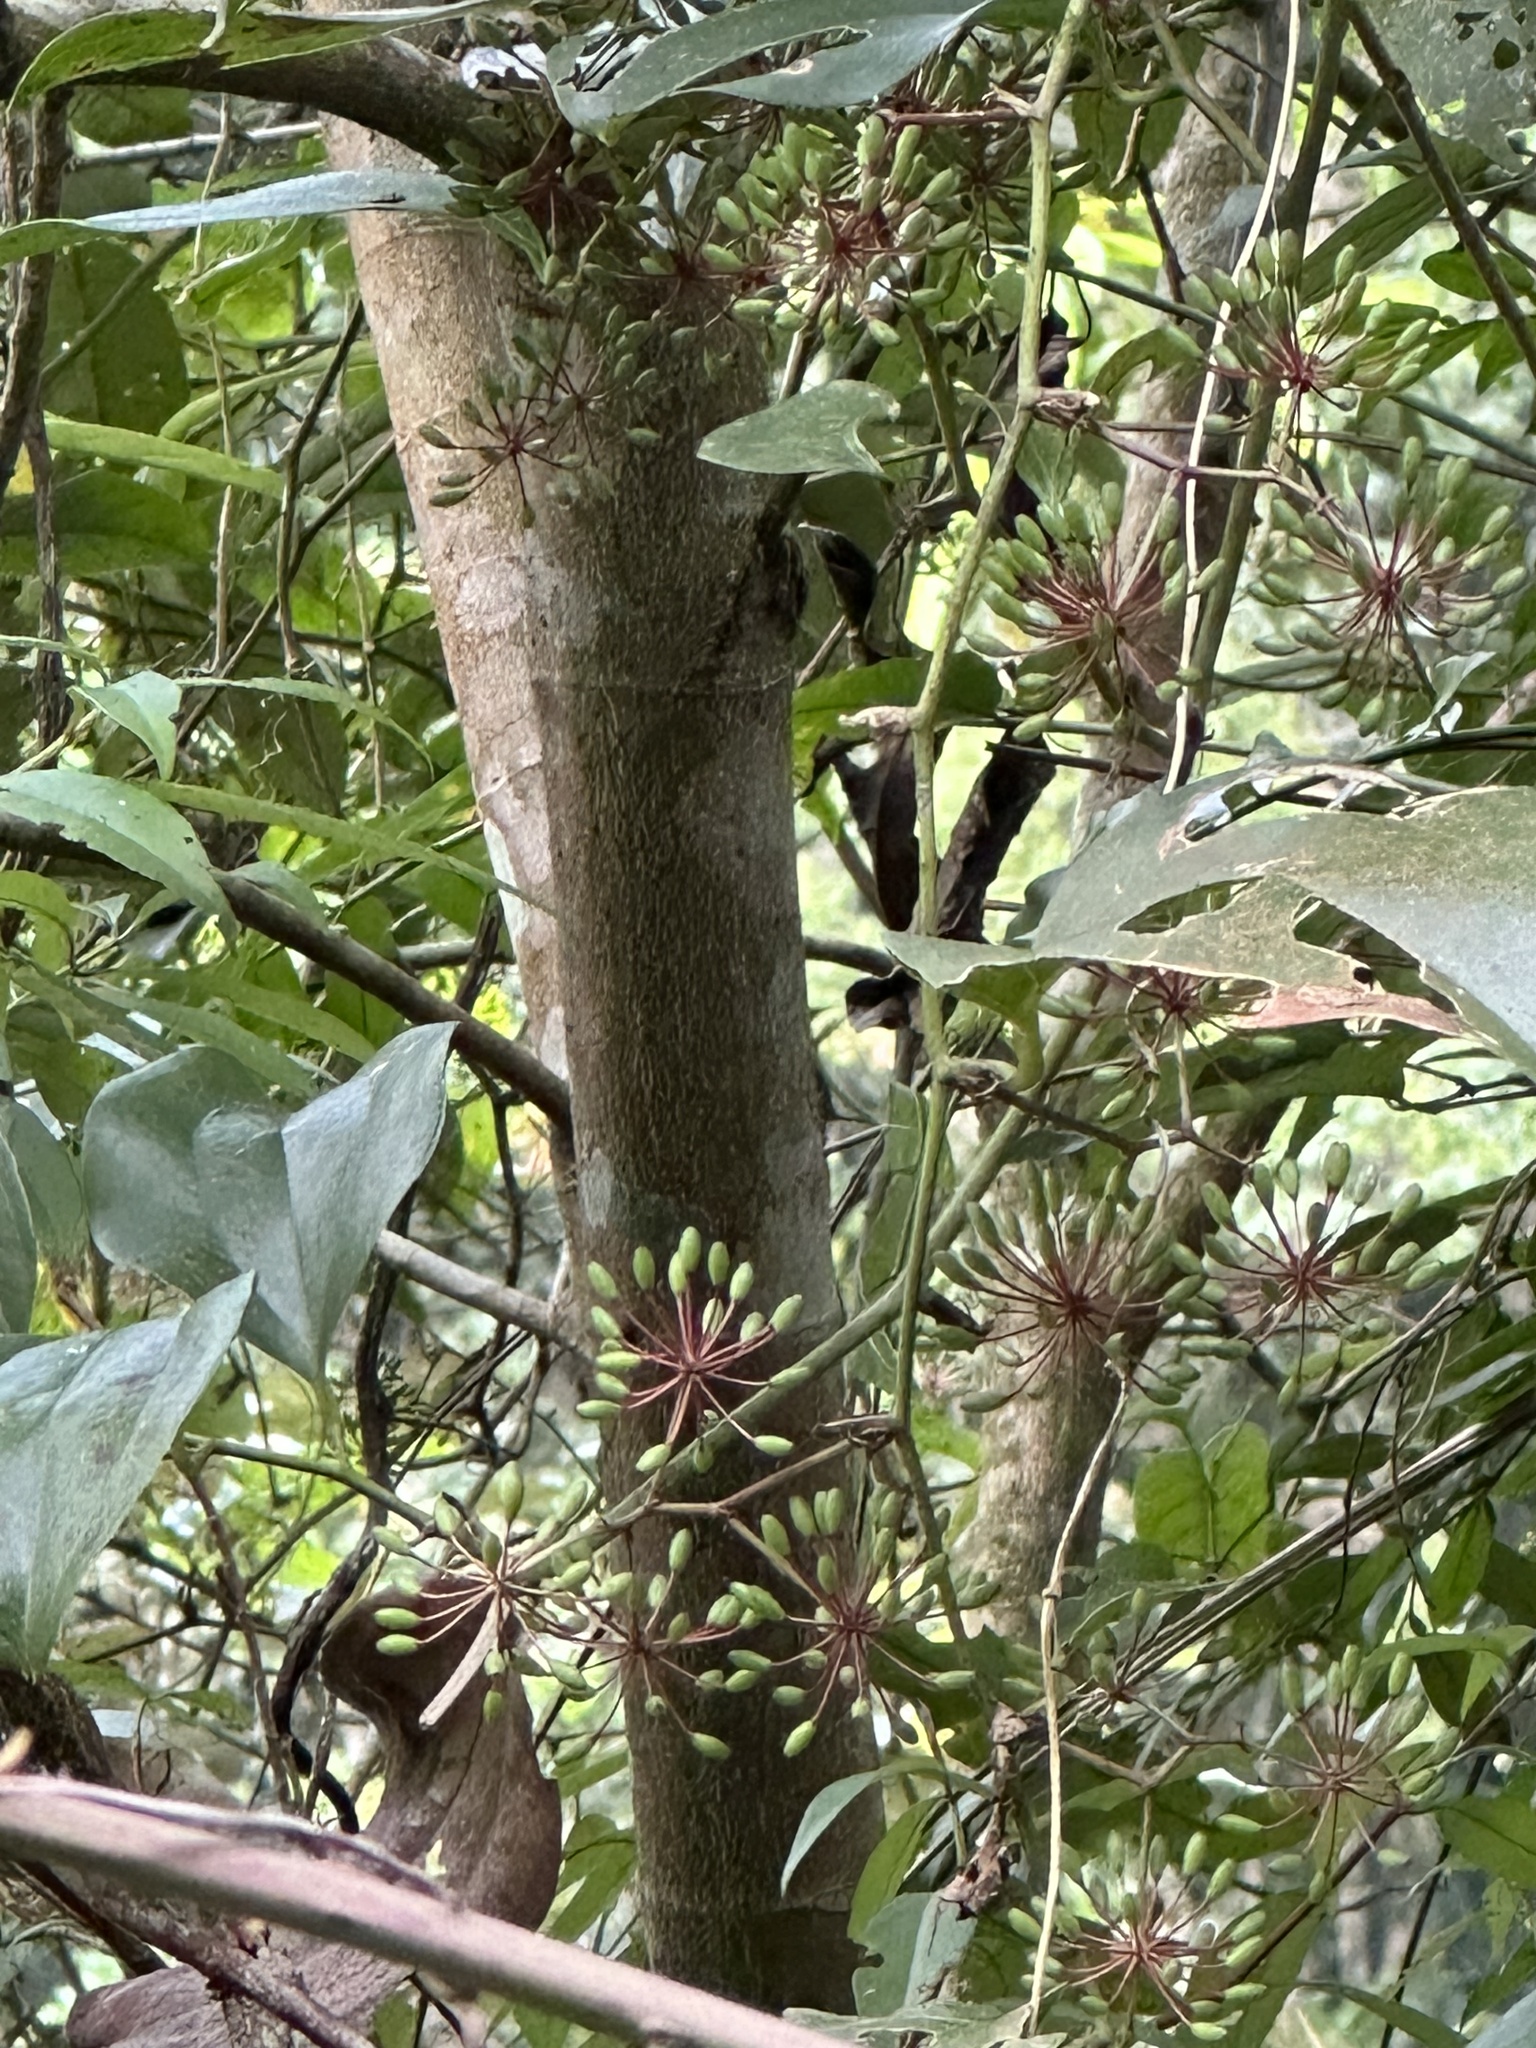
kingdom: Plantae
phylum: Tracheophyta
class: Liliopsida
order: Liliales
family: Smilacaceae
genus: Smilax
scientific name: Smilax bracteata
